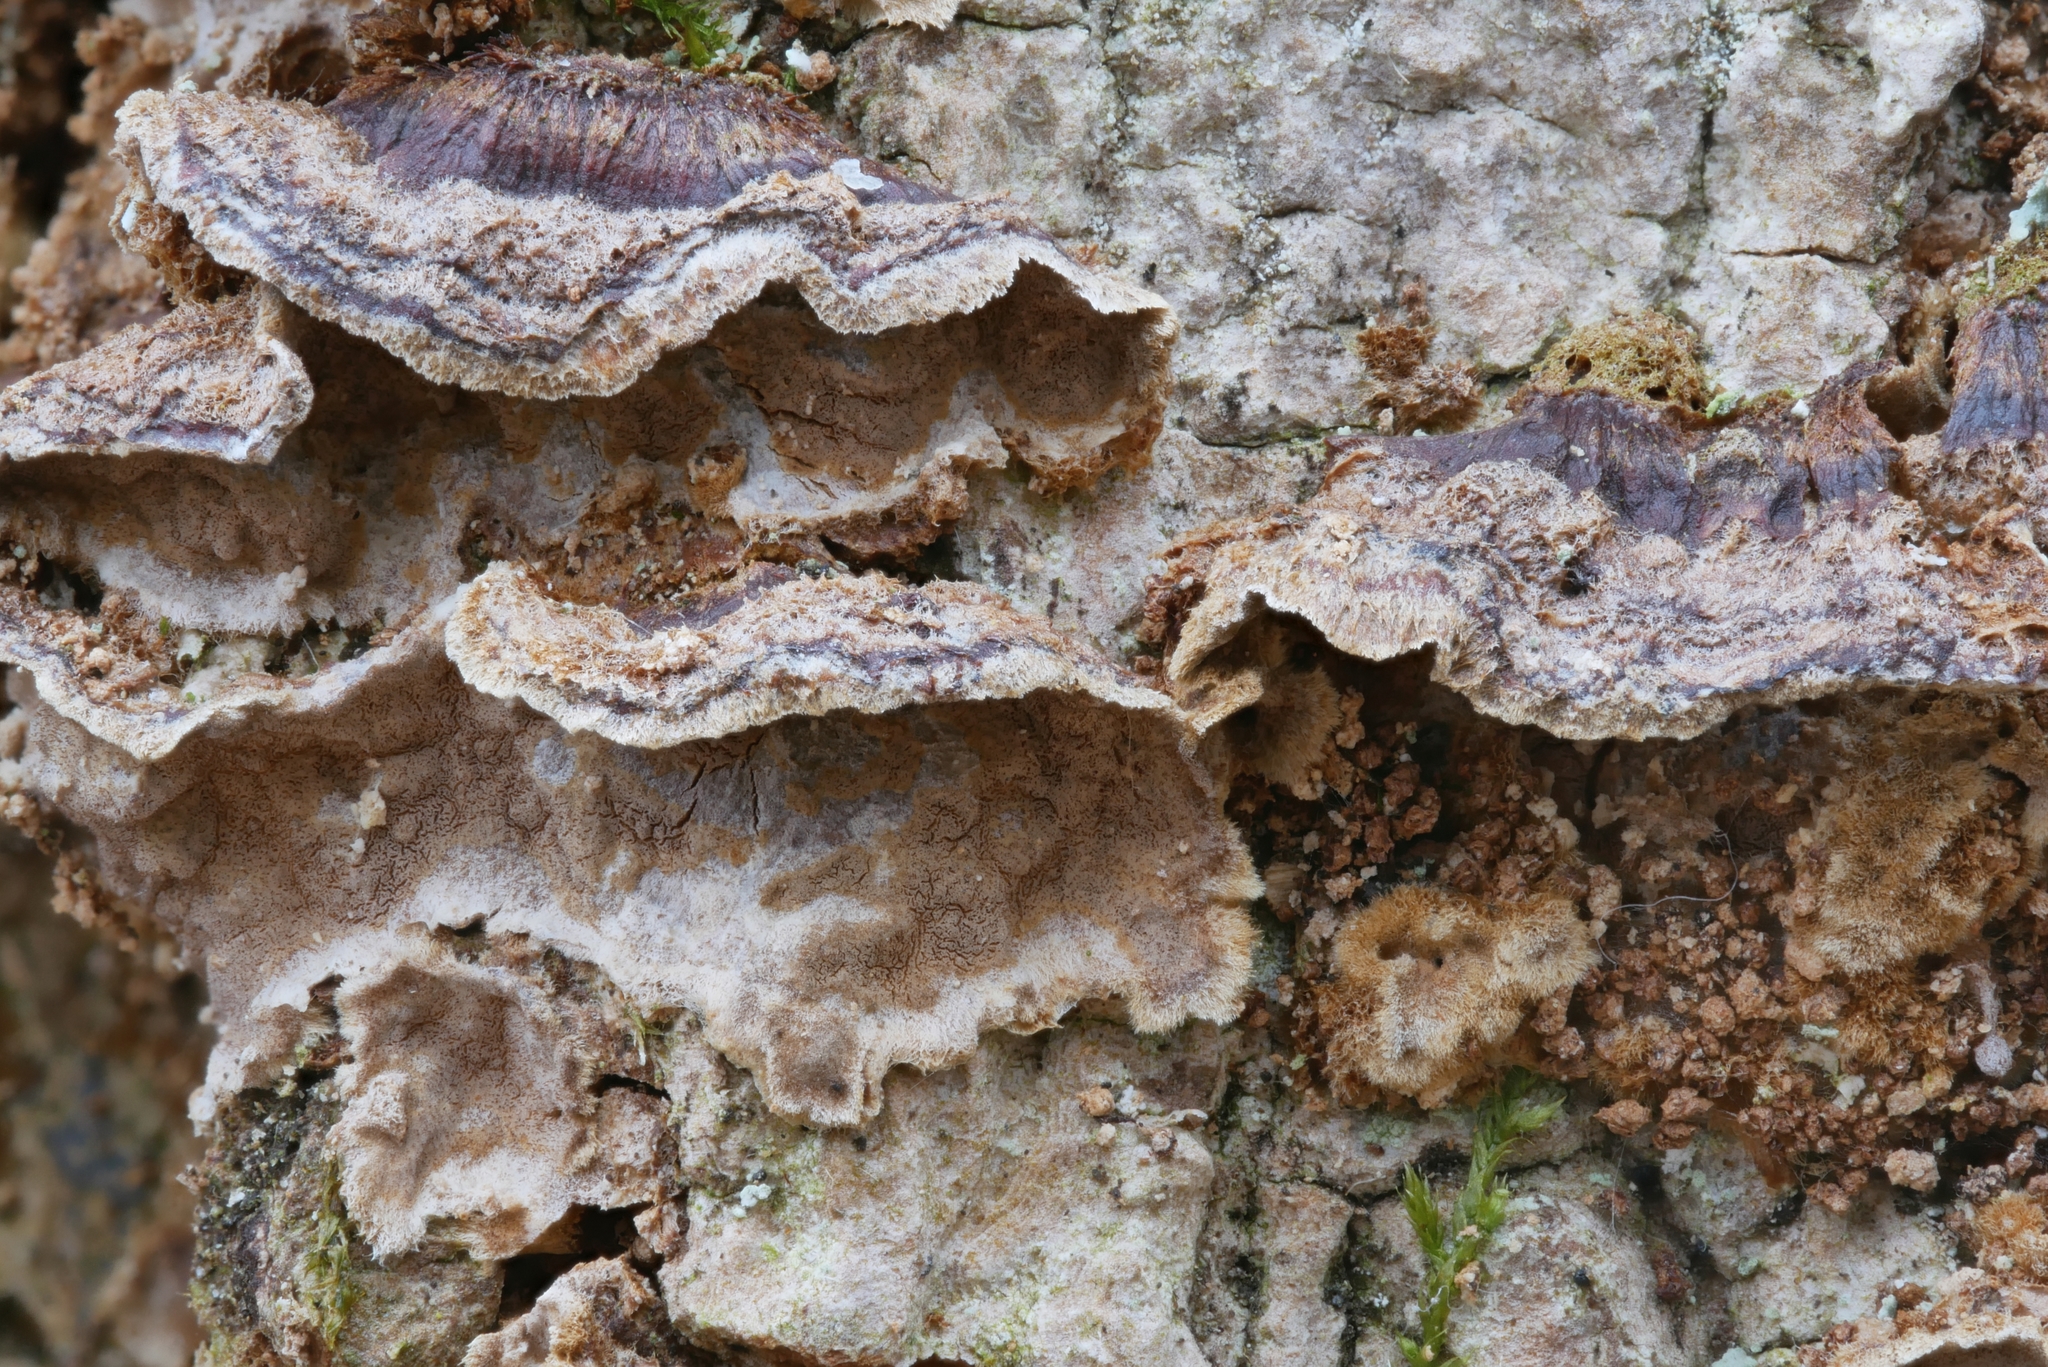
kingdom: Fungi
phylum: Basidiomycota
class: Agaricomycetes
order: Hymenochaetales
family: Hymenochaetaceae
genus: Hydnoporia
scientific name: Hydnoporia tabacina
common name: Willow glue
